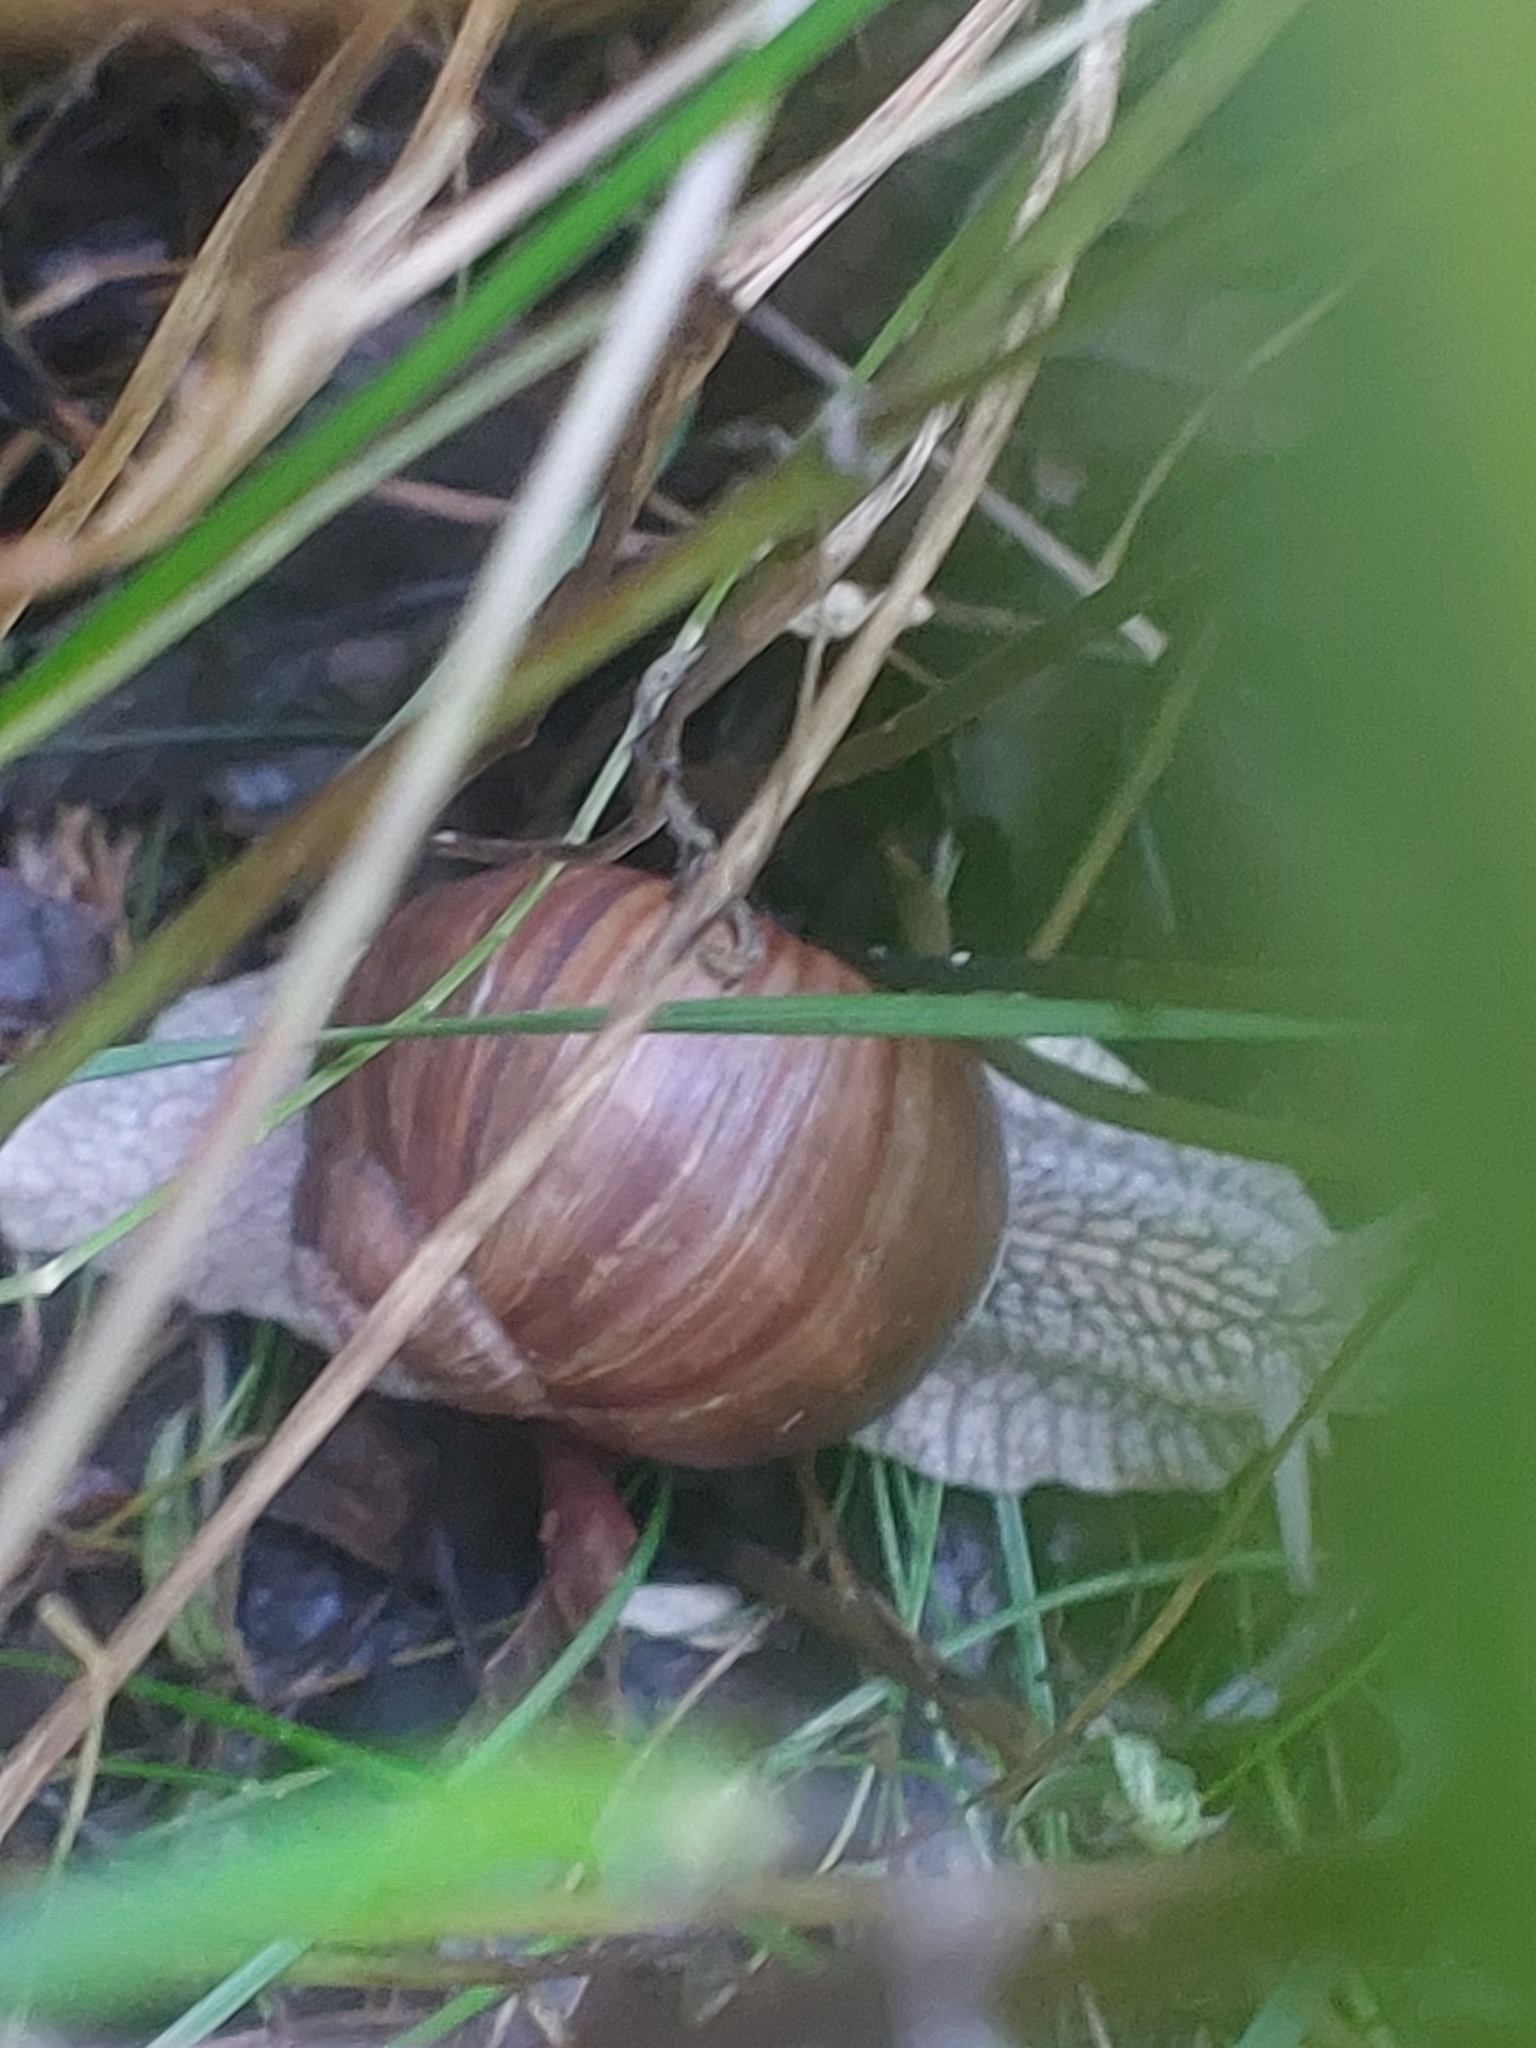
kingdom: Animalia
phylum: Mollusca
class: Gastropoda
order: Stylommatophora
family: Helicidae
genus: Helix
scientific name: Helix pomatia
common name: Roman snail
